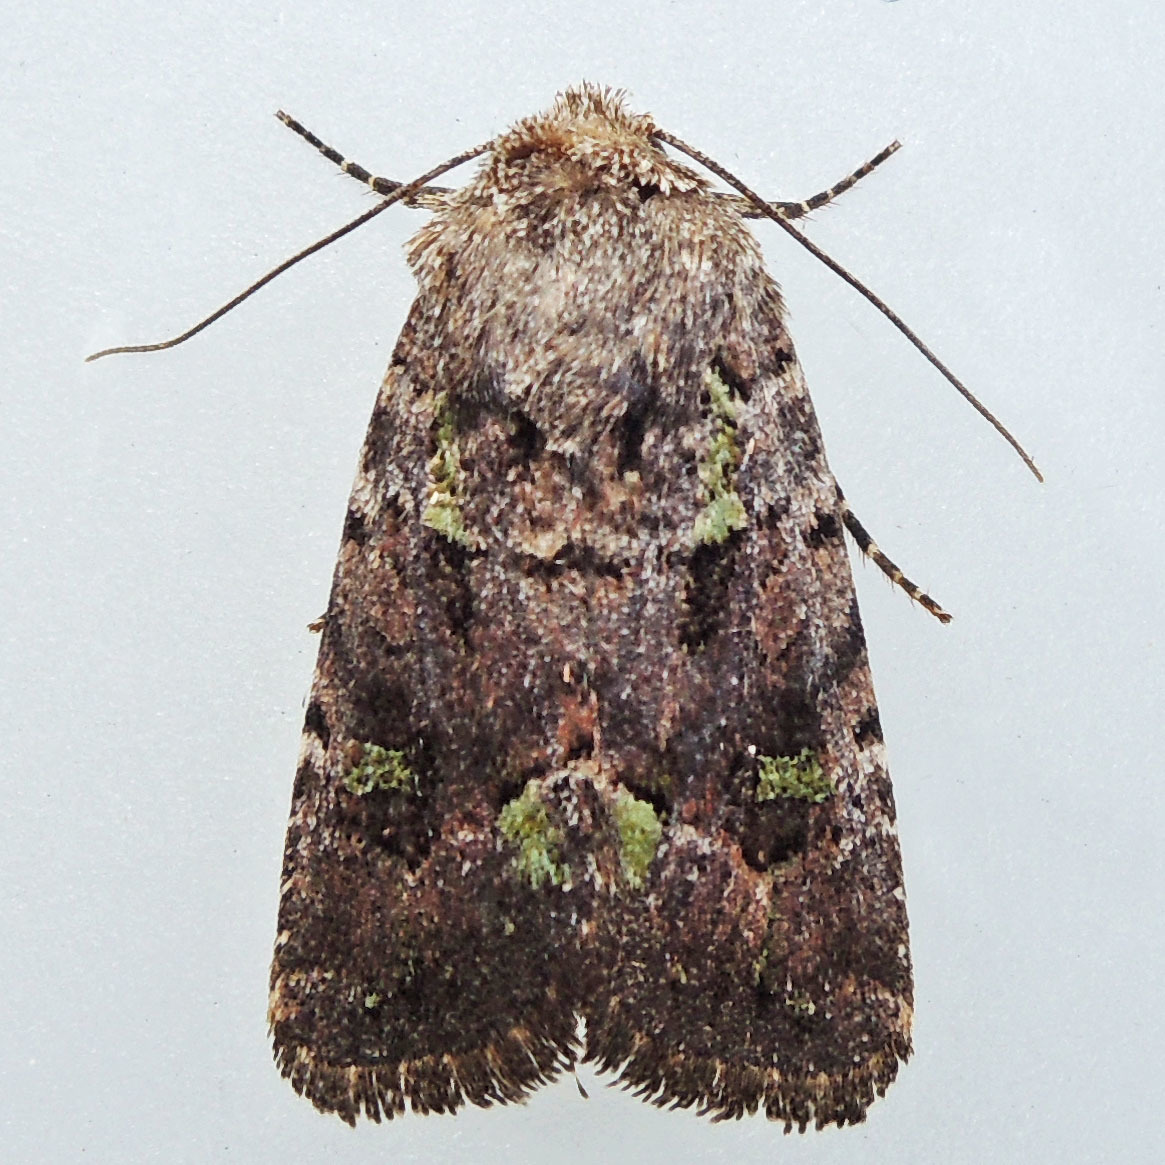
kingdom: Animalia
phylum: Arthropoda
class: Insecta
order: Lepidoptera
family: Noctuidae
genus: Lacinipolia
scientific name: Lacinipolia renigera
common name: Kidney-spotted minor
